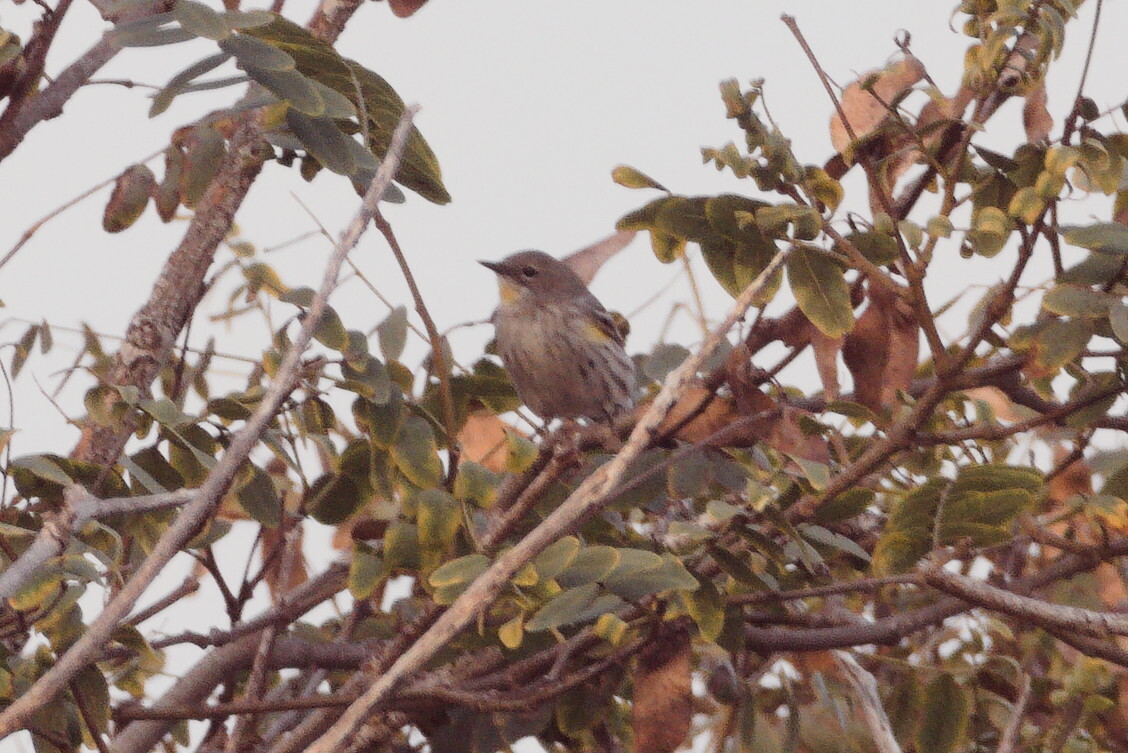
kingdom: Animalia
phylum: Chordata
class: Aves
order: Passeriformes
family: Parulidae
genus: Setophaga
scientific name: Setophaga coronata
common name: Myrtle warbler
